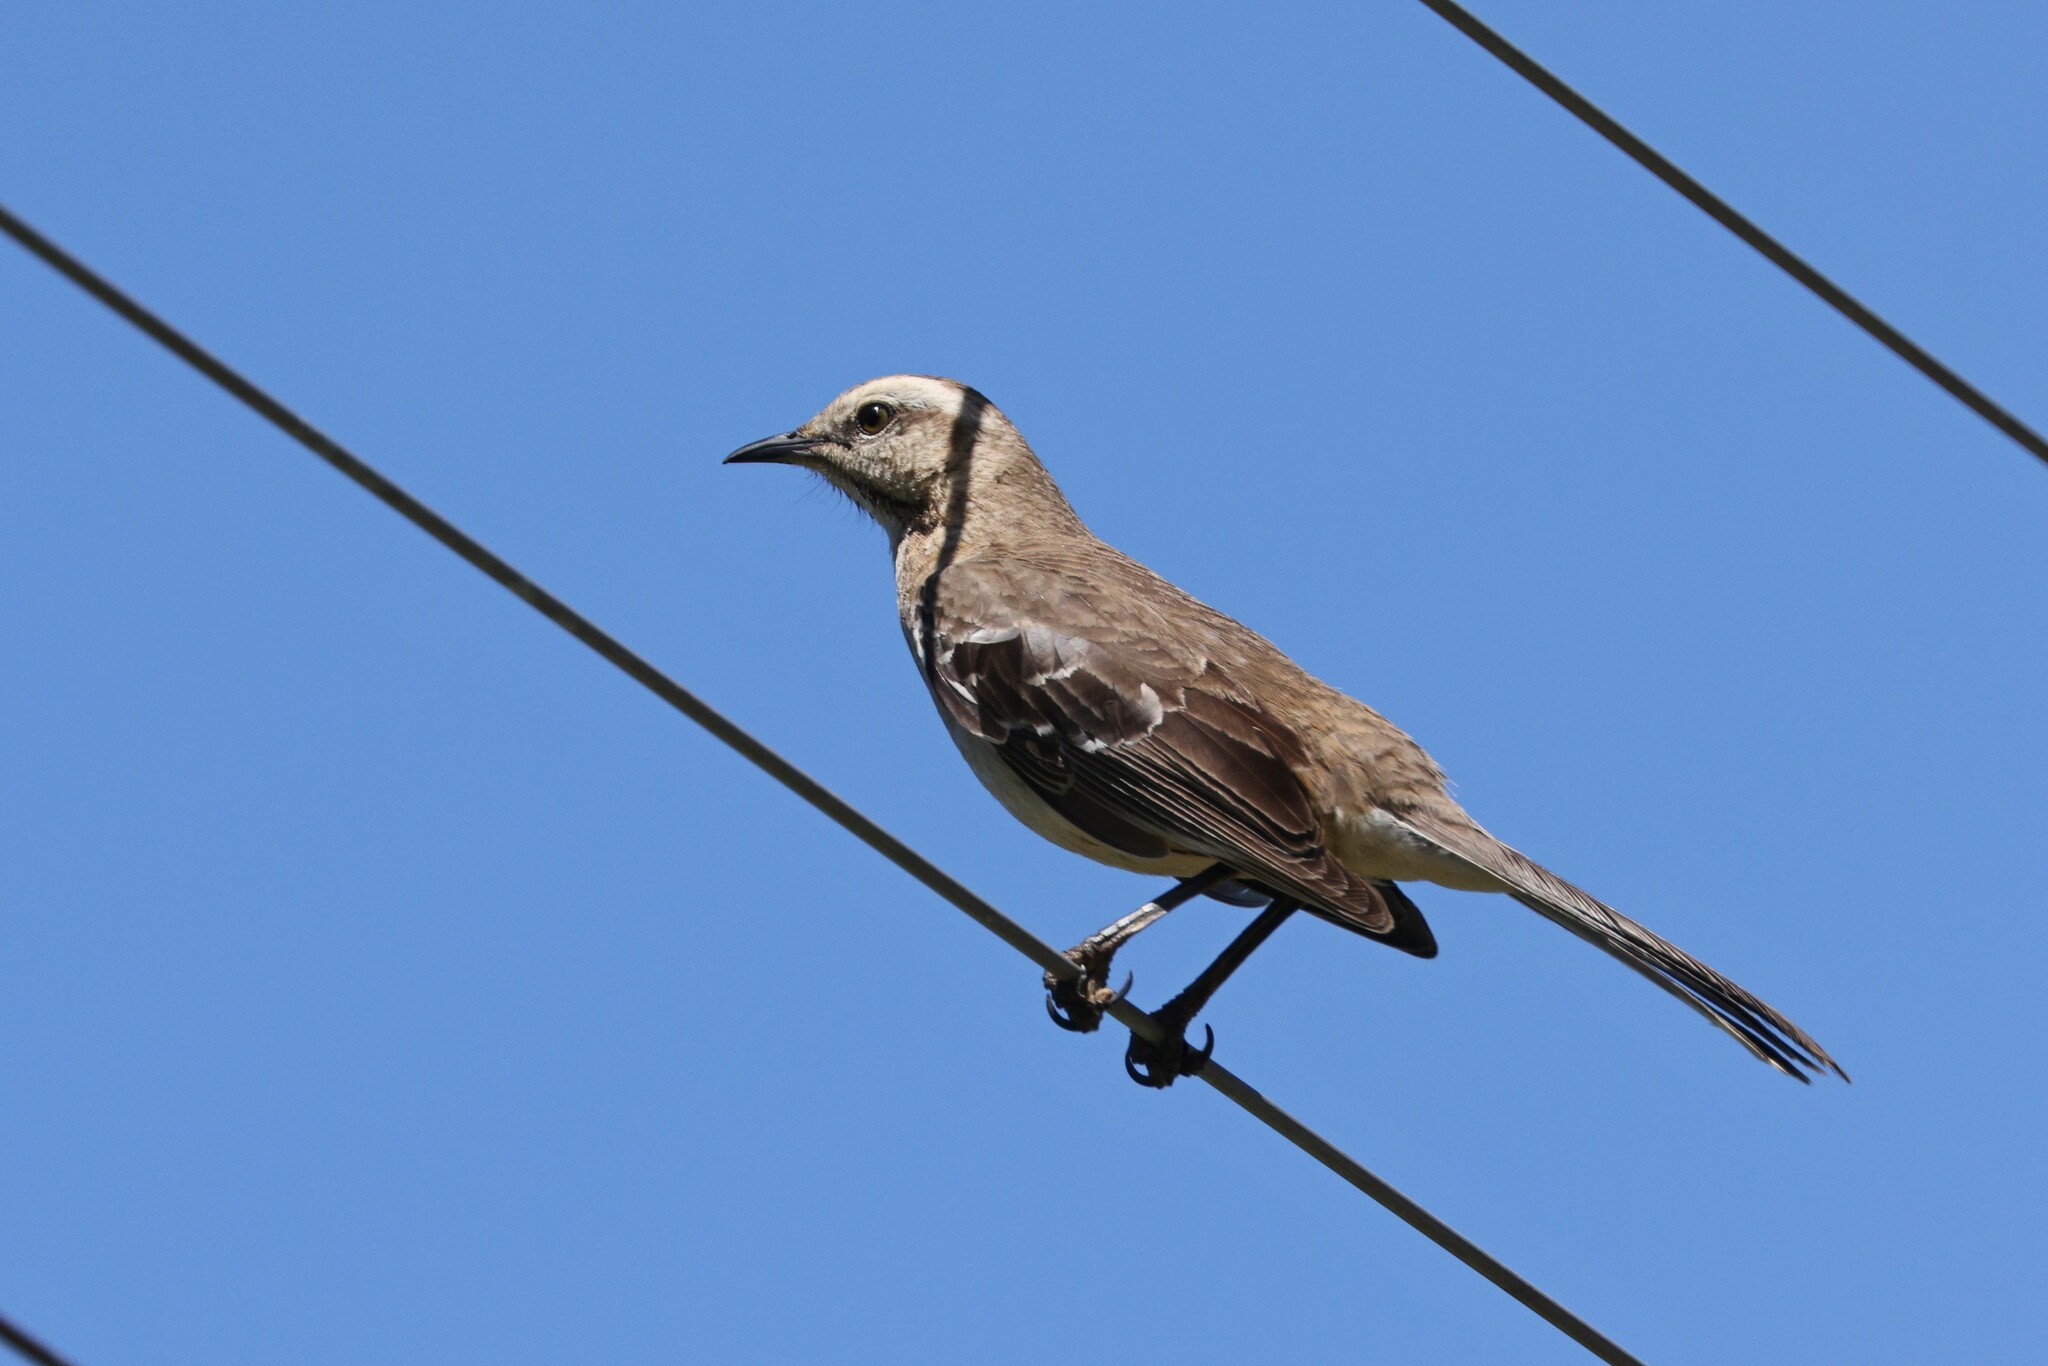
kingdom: Animalia
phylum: Chordata
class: Aves
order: Passeriformes
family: Mimidae
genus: Mimus
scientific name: Mimus thenca
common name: Chilean mockingbird
